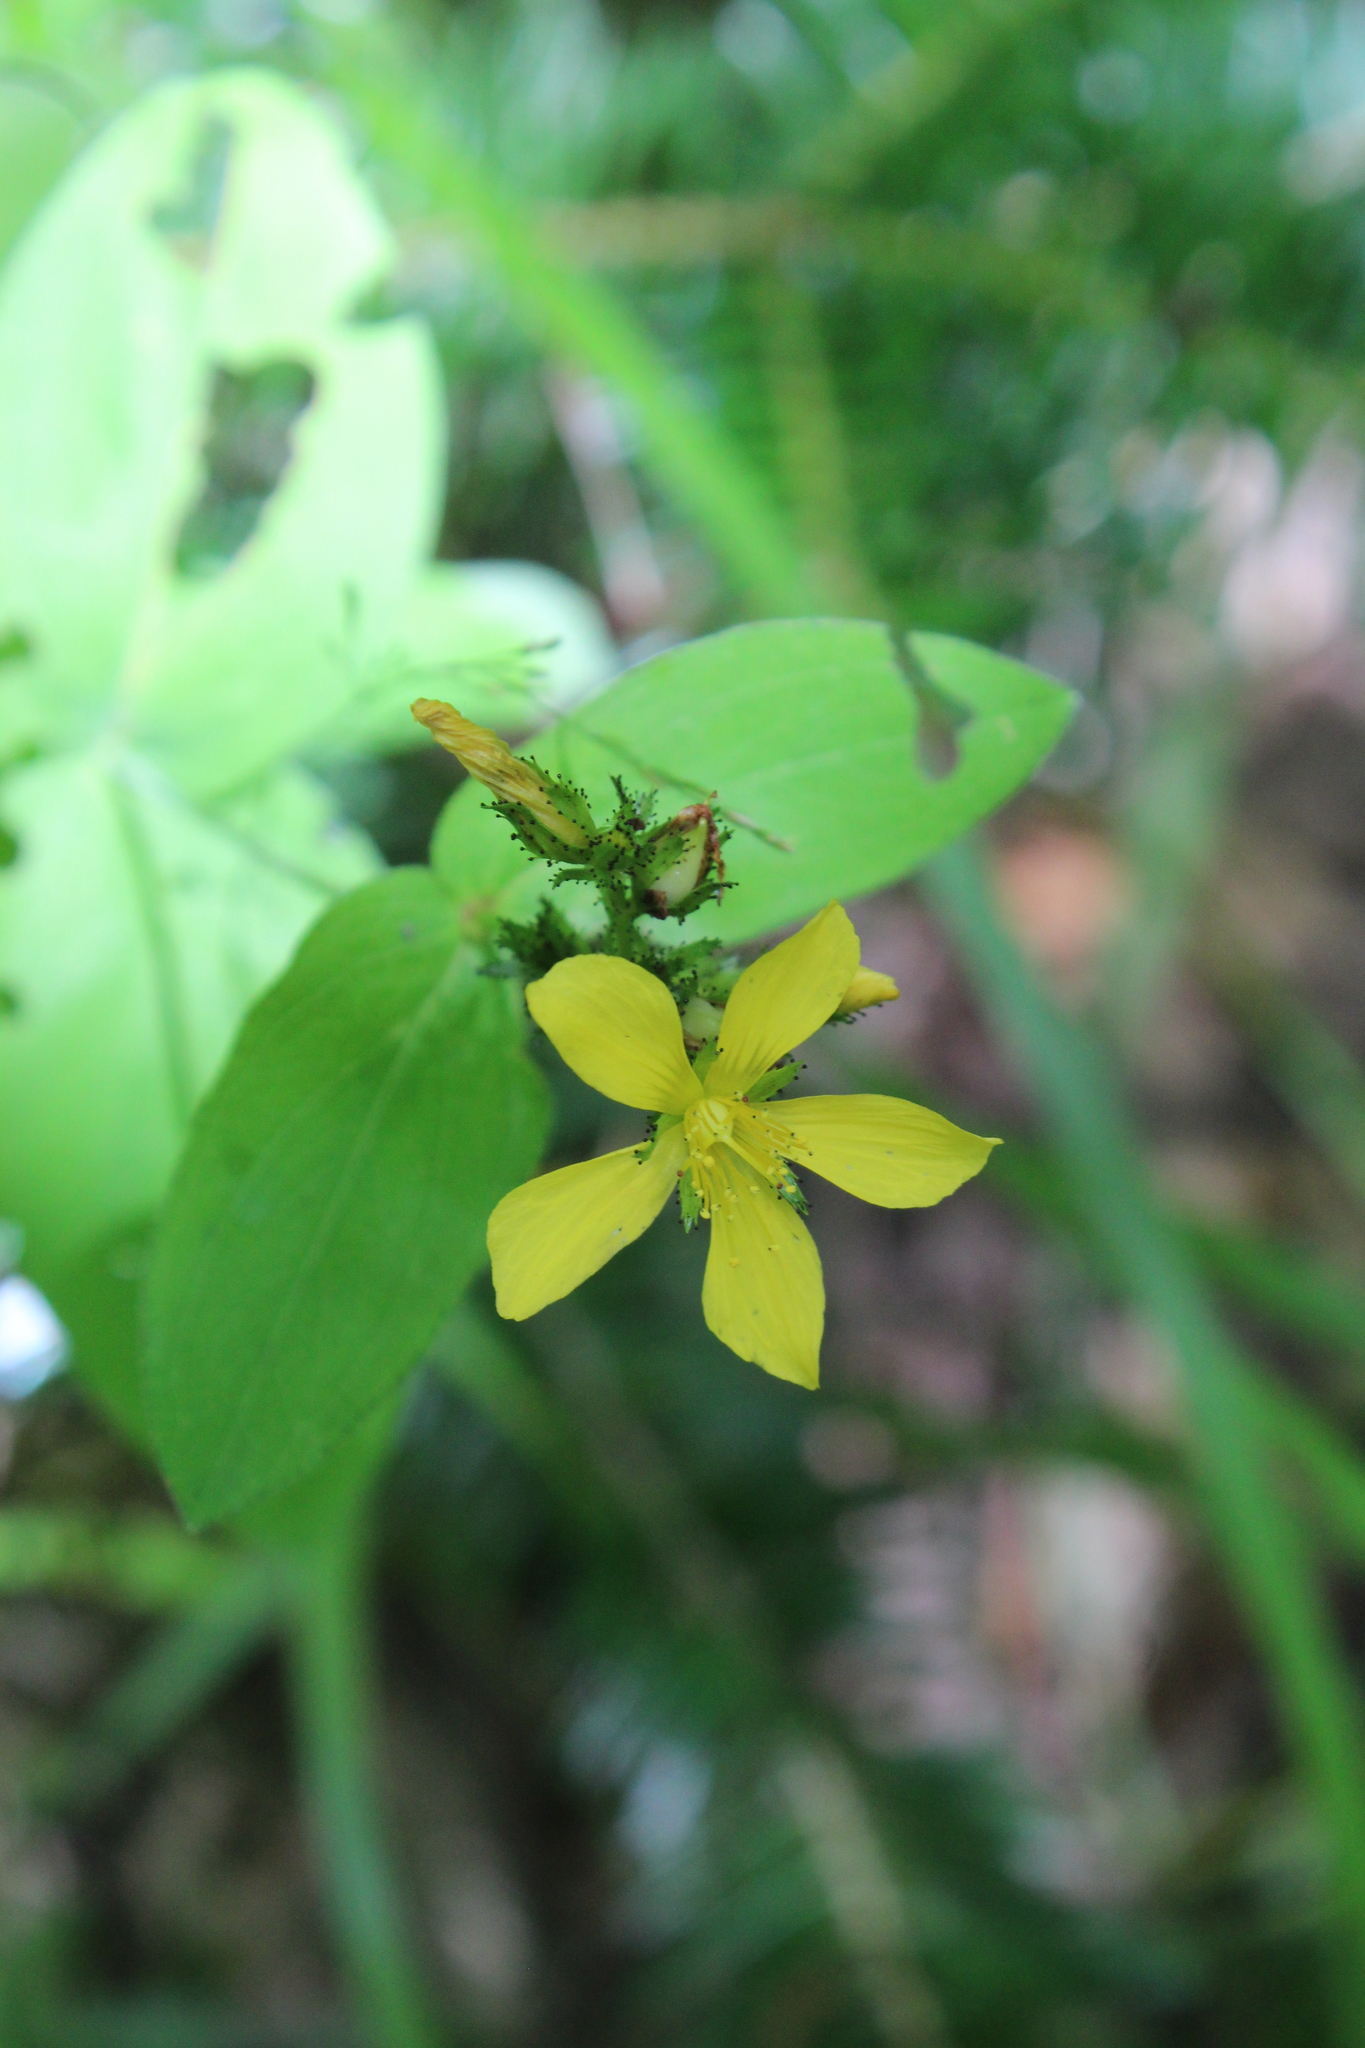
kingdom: Plantae
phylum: Tracheophyta
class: Magnoliopsida
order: Malpighiales
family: Hypericaceae
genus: Hypericum
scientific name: Hypericum montanum
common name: Pale st. john's-wort
